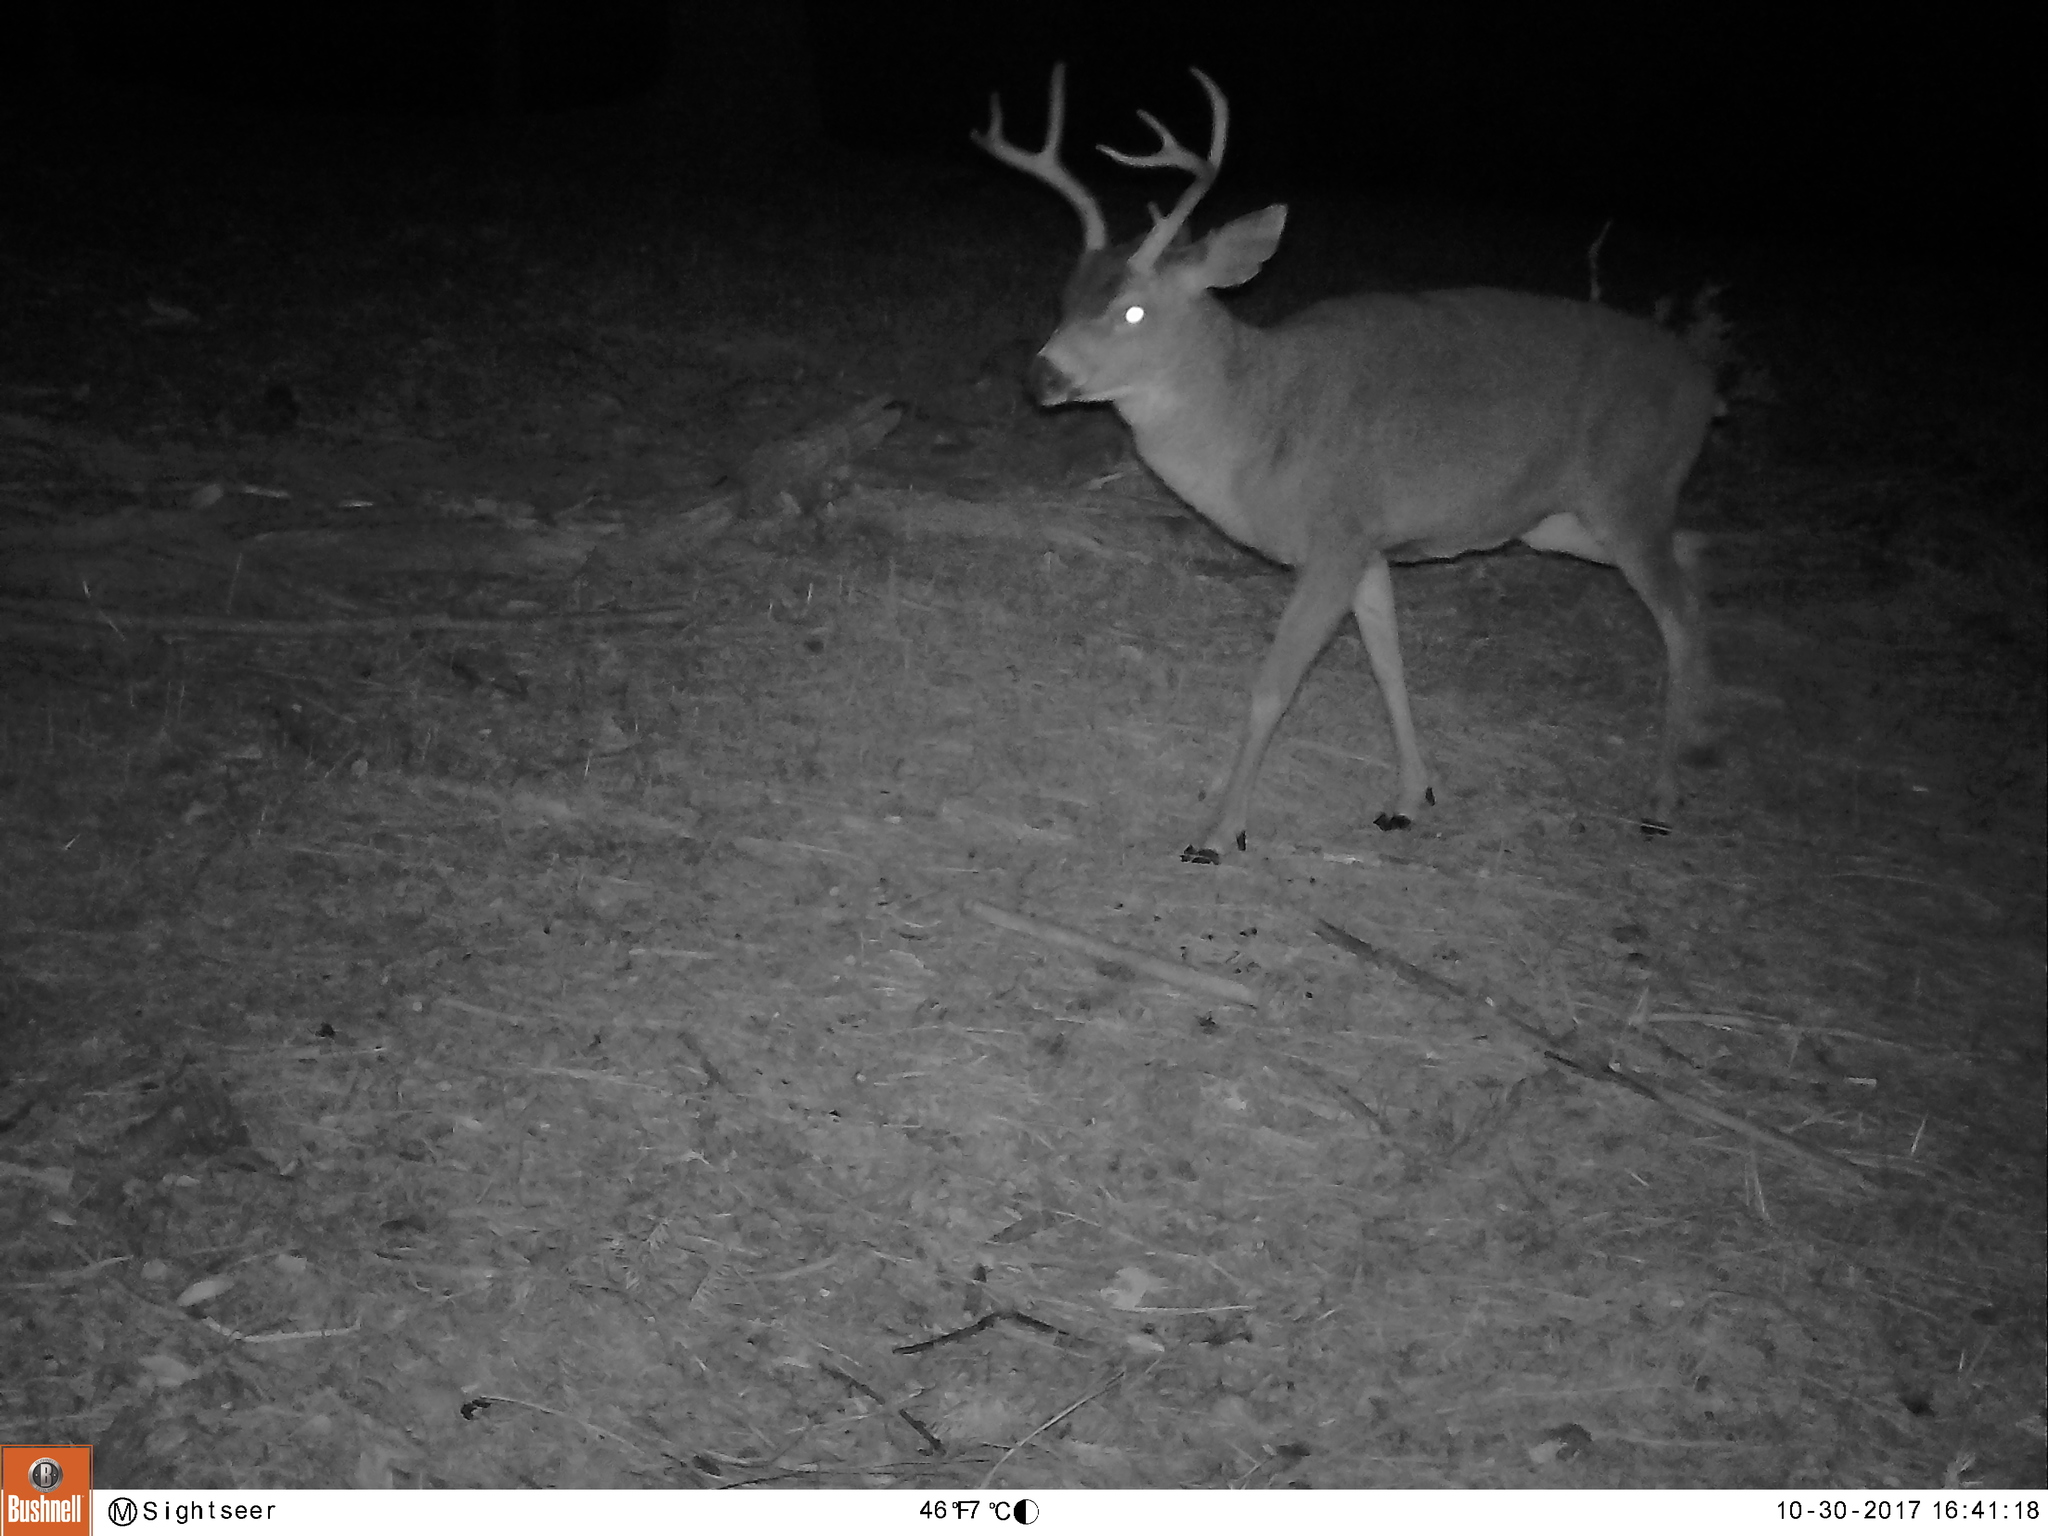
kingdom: Animalia
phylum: Chordata
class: Mammalia
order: Artiodactyla
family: Cervidae
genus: Odocoileus
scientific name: Odocoileus hemionus
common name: Mule deer
